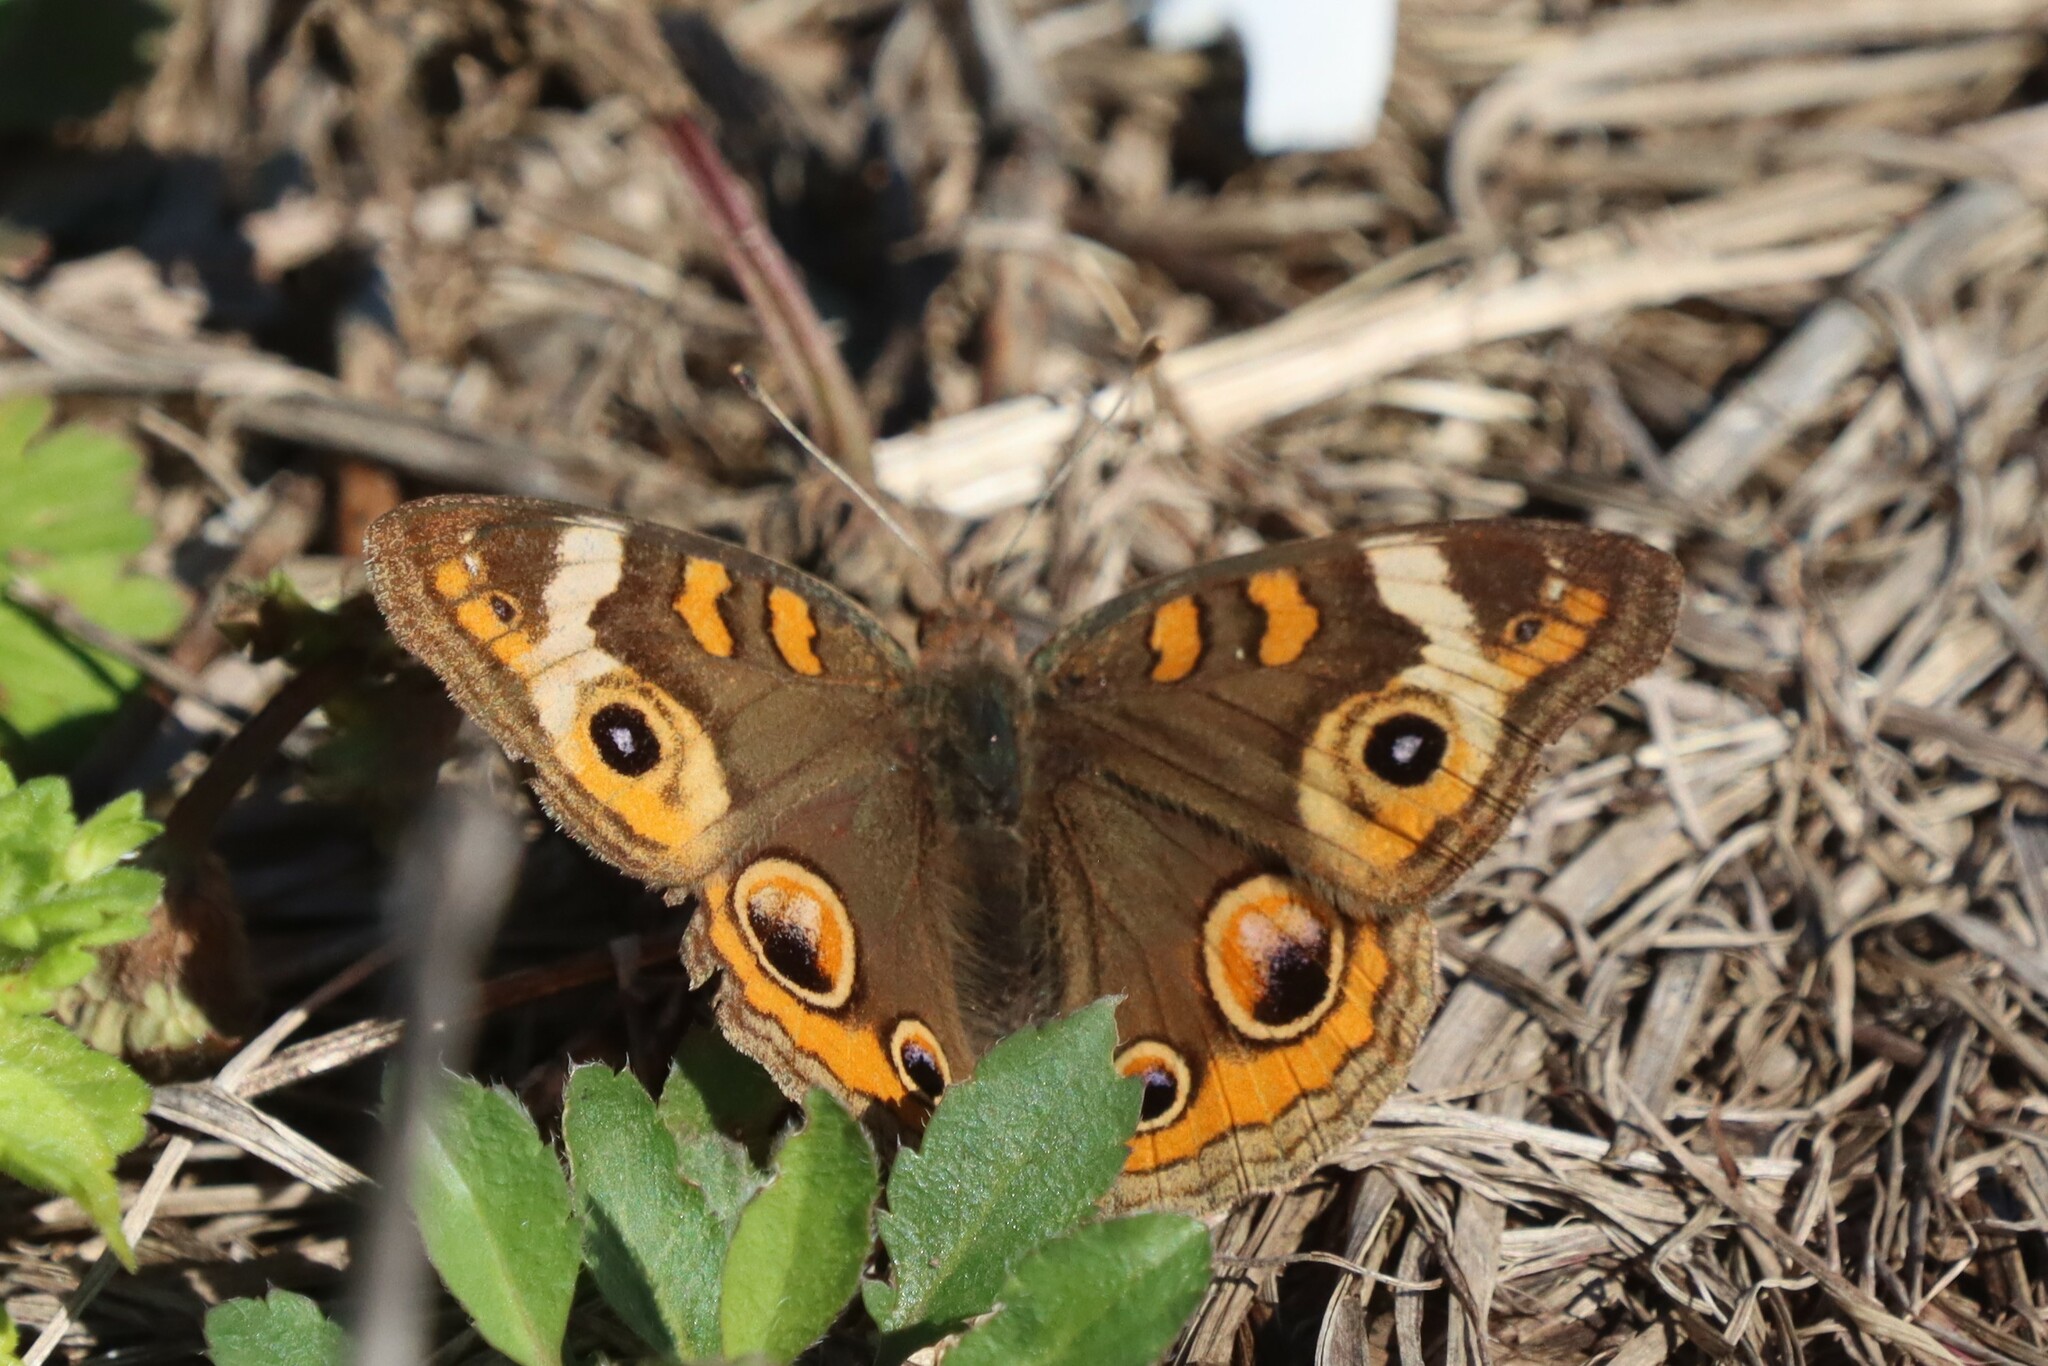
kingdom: Animalia
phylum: Arthropoda
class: Insecta
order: Lepidoptera
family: Nymphalidae
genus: Junonia
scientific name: Junonia coenia
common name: Common buckeye
